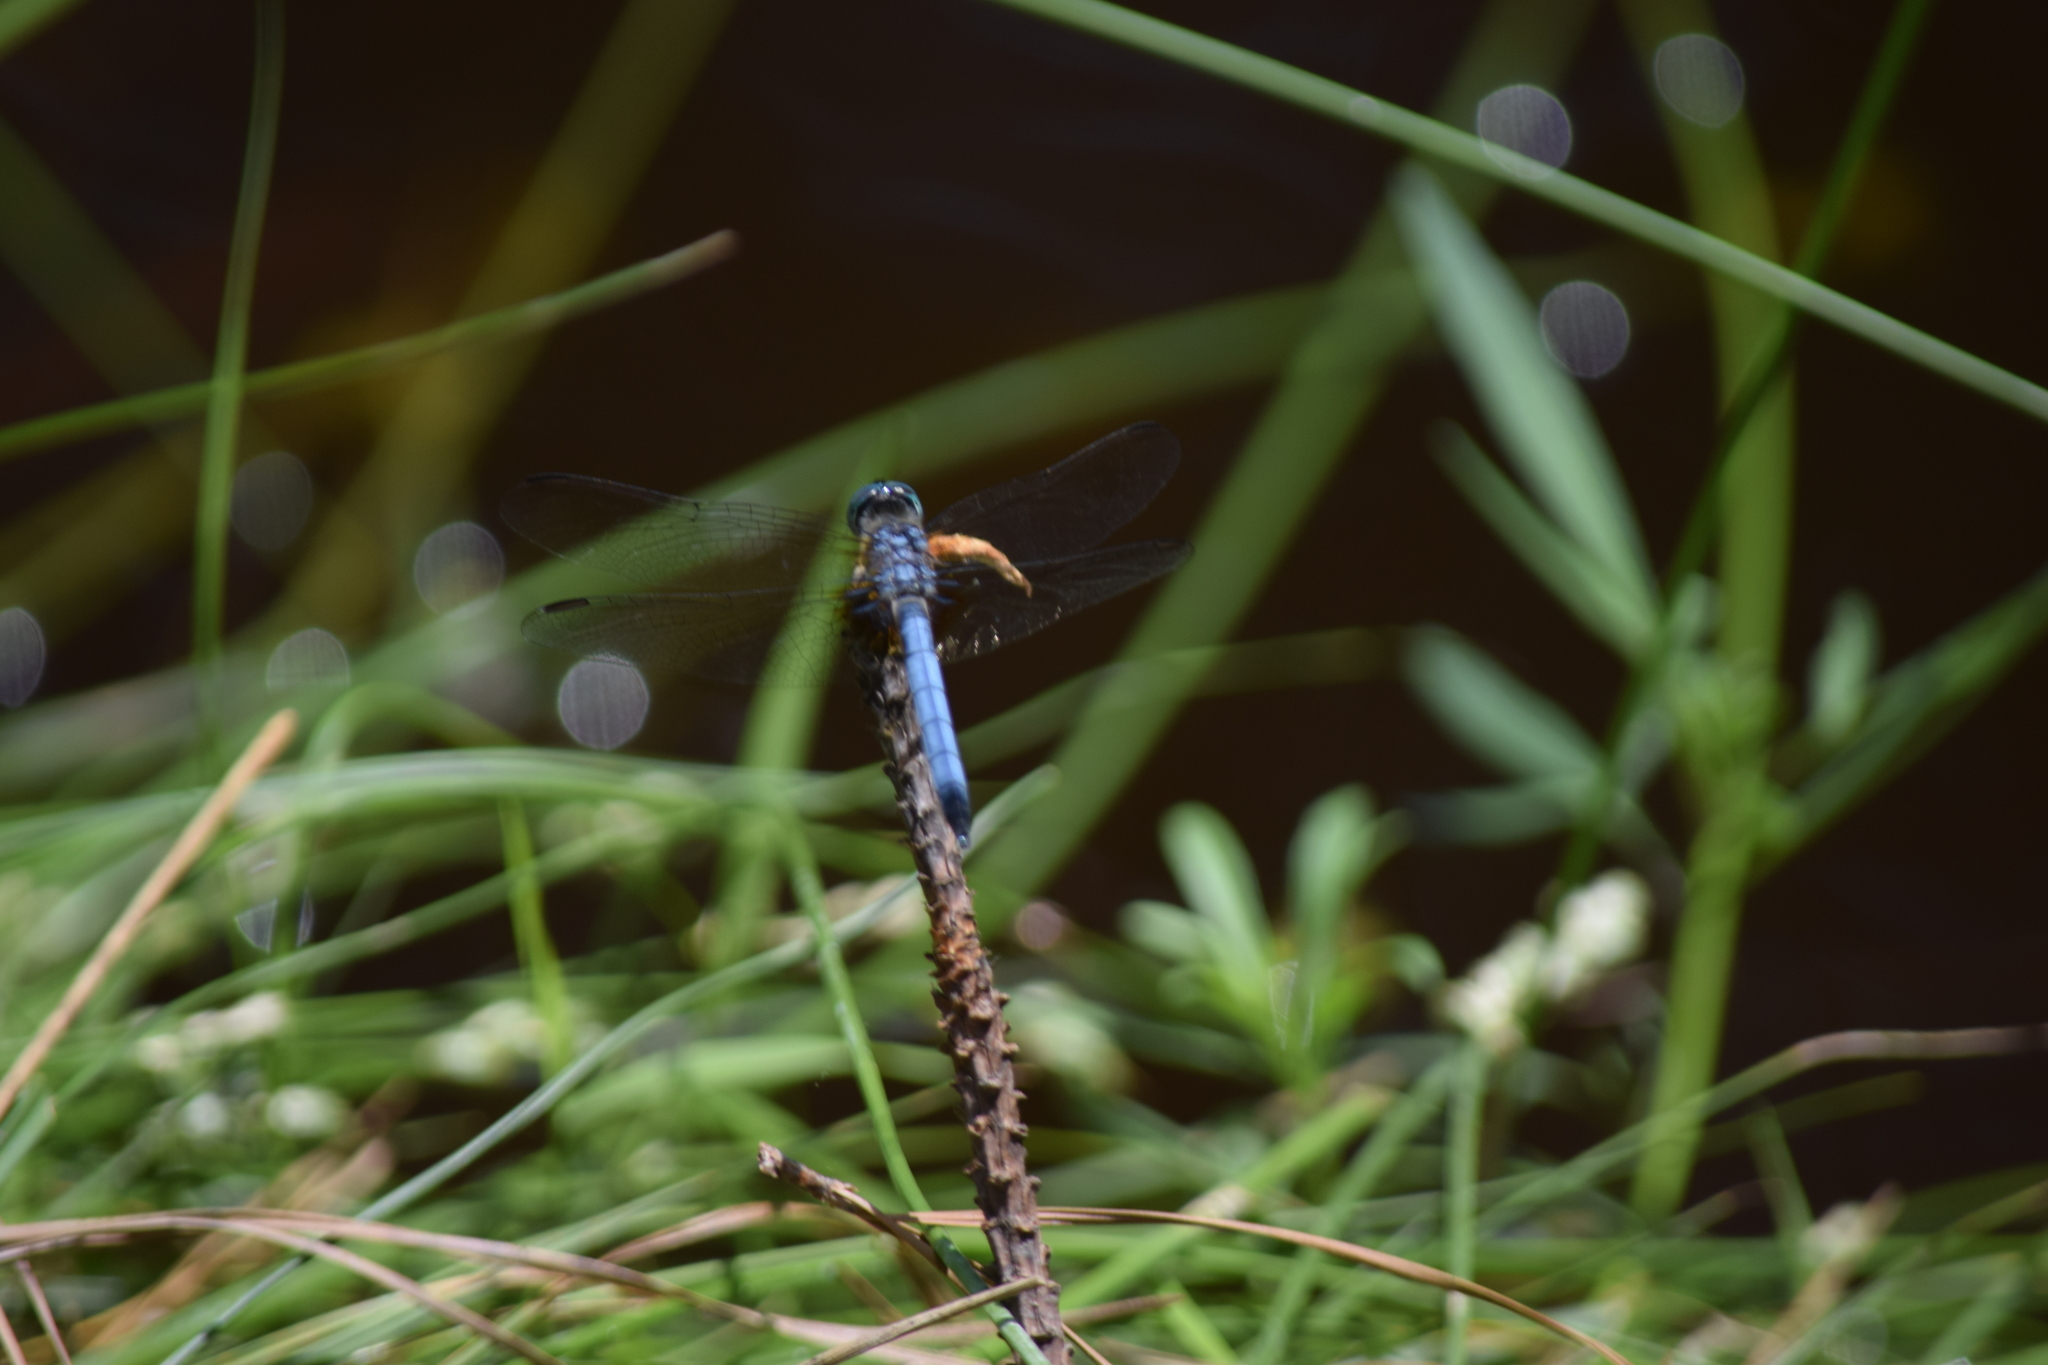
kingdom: Animalia
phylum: Arthropoda
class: Insecta
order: Odonata
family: Libellulidae
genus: Pachydiplax
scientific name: Pachydiplax longipennis
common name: Blue dasher
